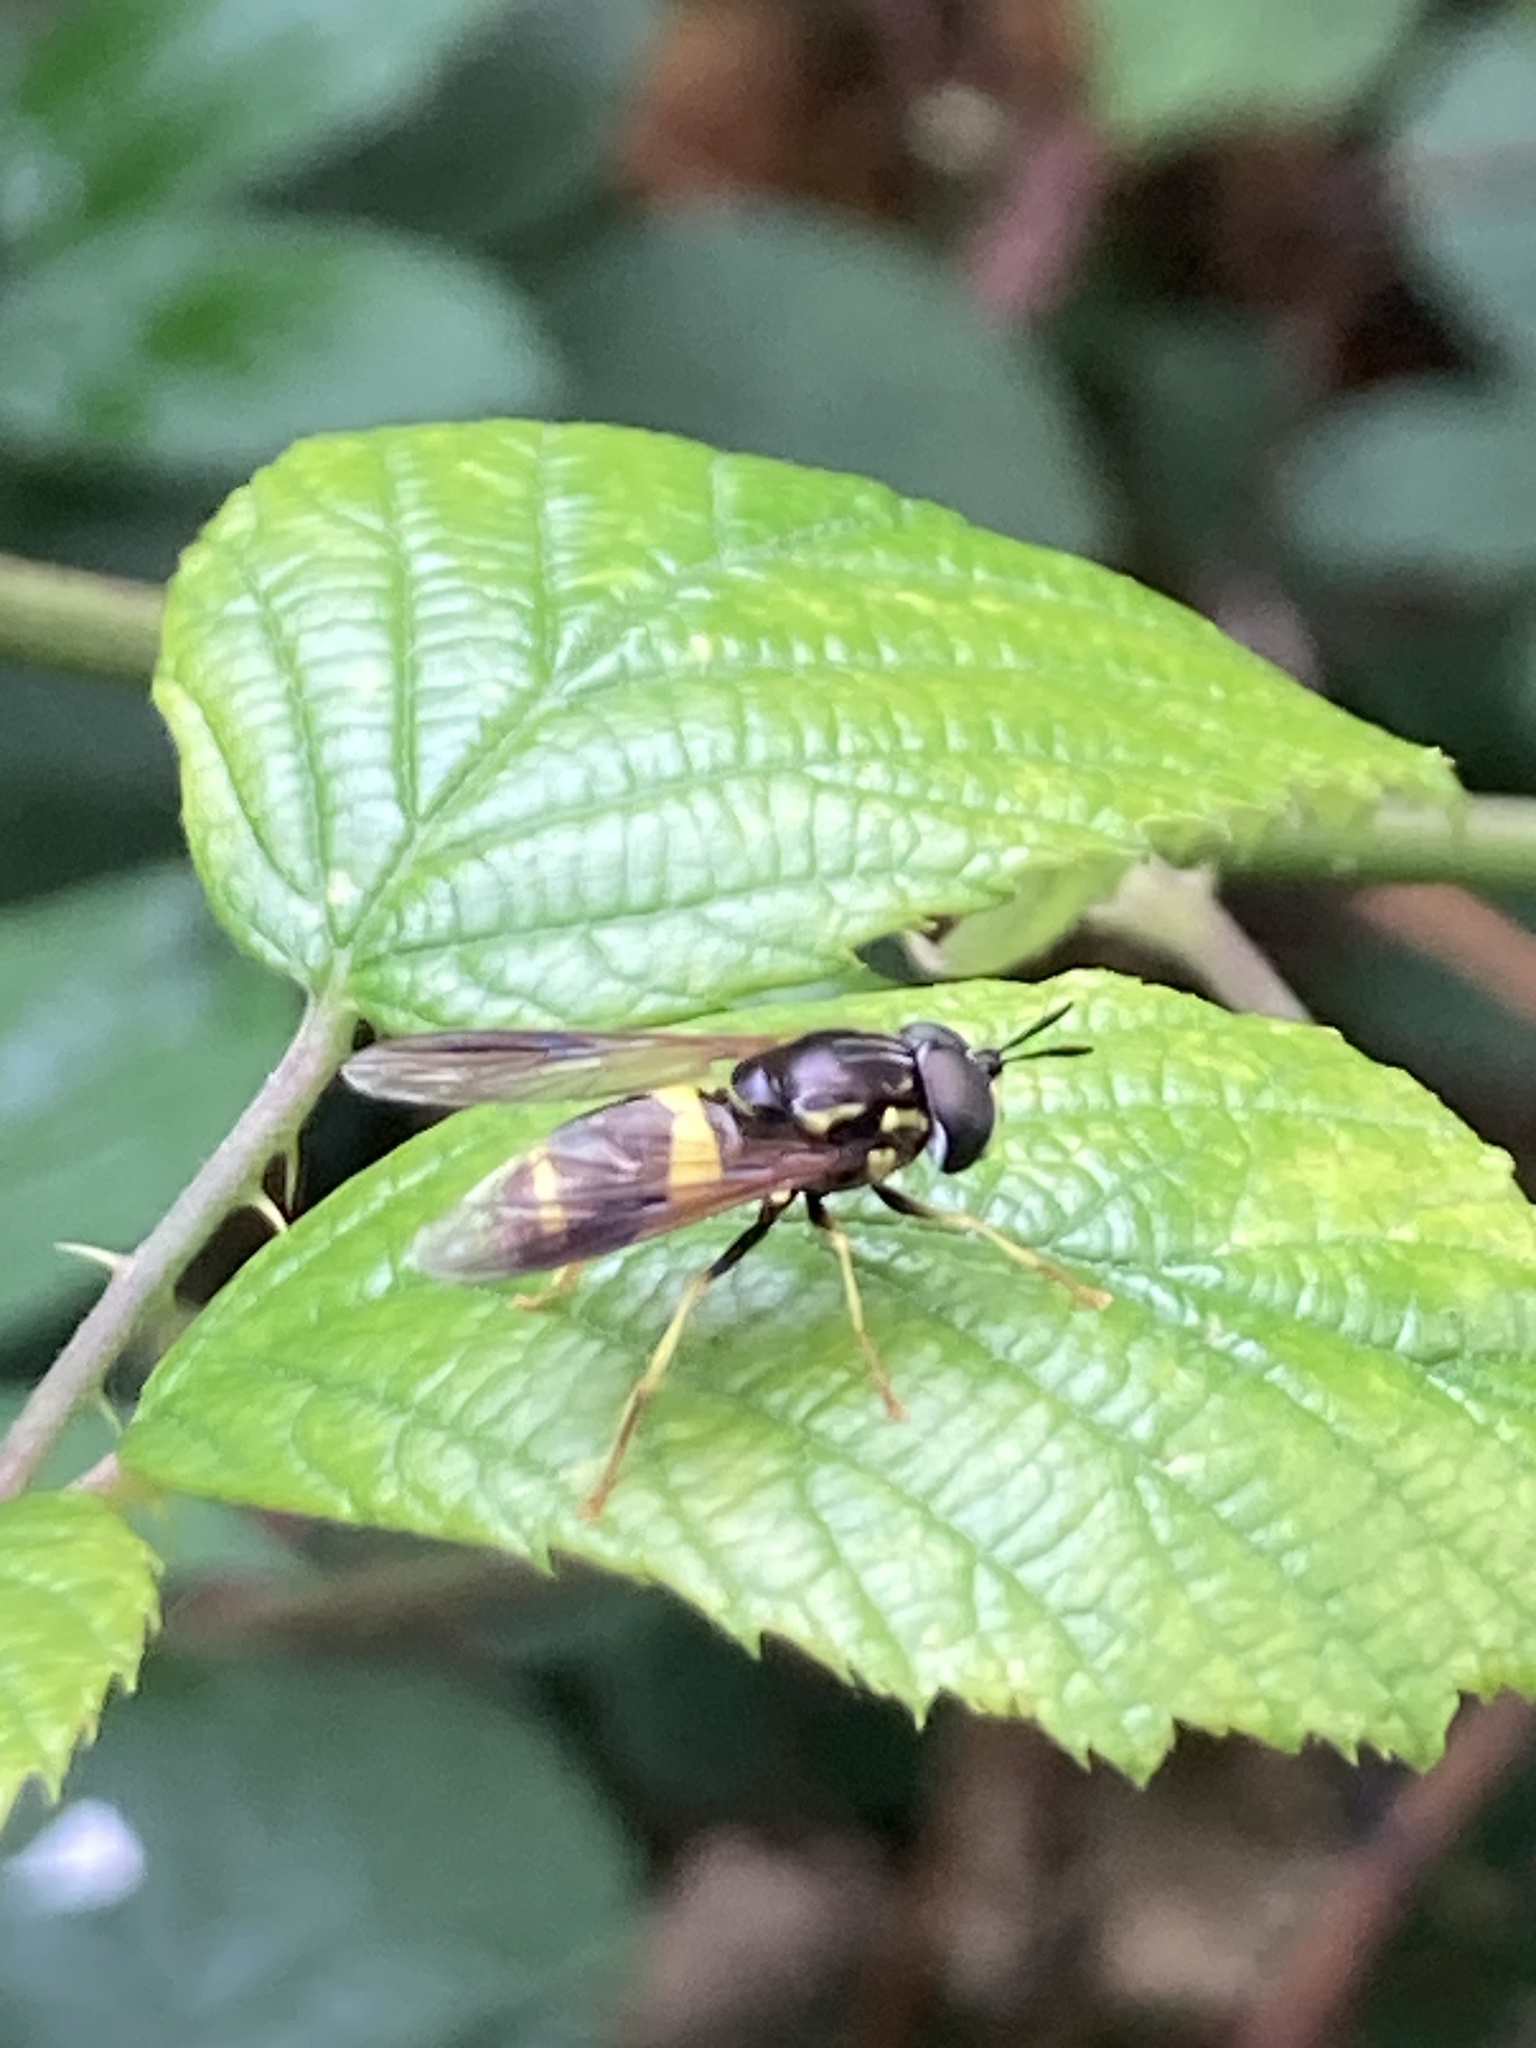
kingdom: Animalia
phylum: Arthropoda
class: Insecta
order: Diptera
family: Syrphidae
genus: Chrysotoxum
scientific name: Chrysotoxum bicincta
